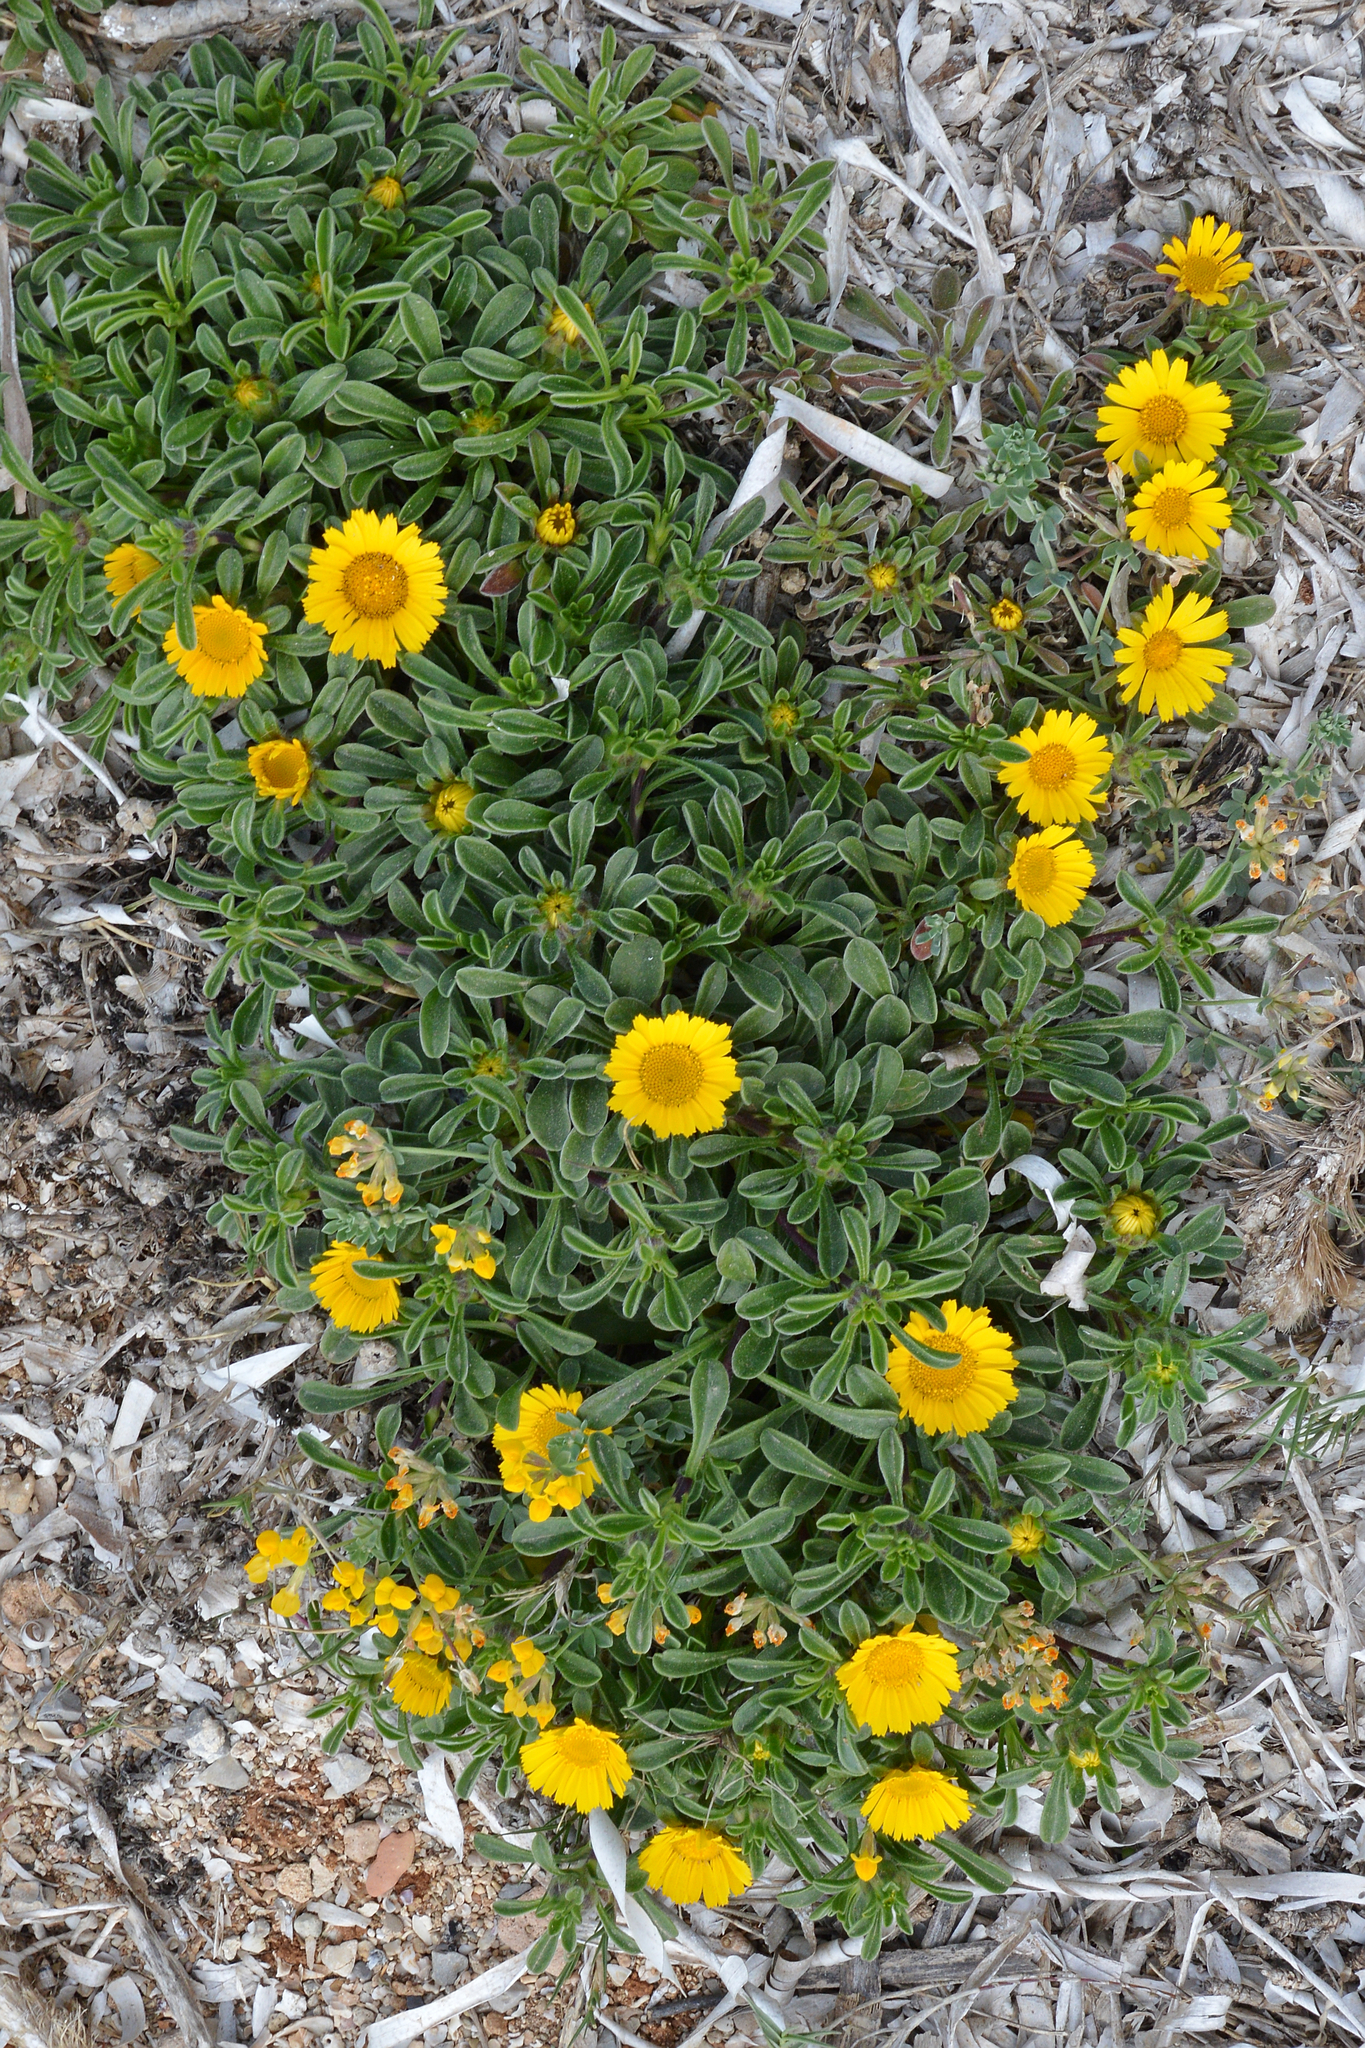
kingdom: Plantae
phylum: Tracheophyta
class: Magnoliopsida
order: Asterales
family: Asteraceae
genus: Pallenis
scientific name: Pallenis maritima
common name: Golden coin daisy
